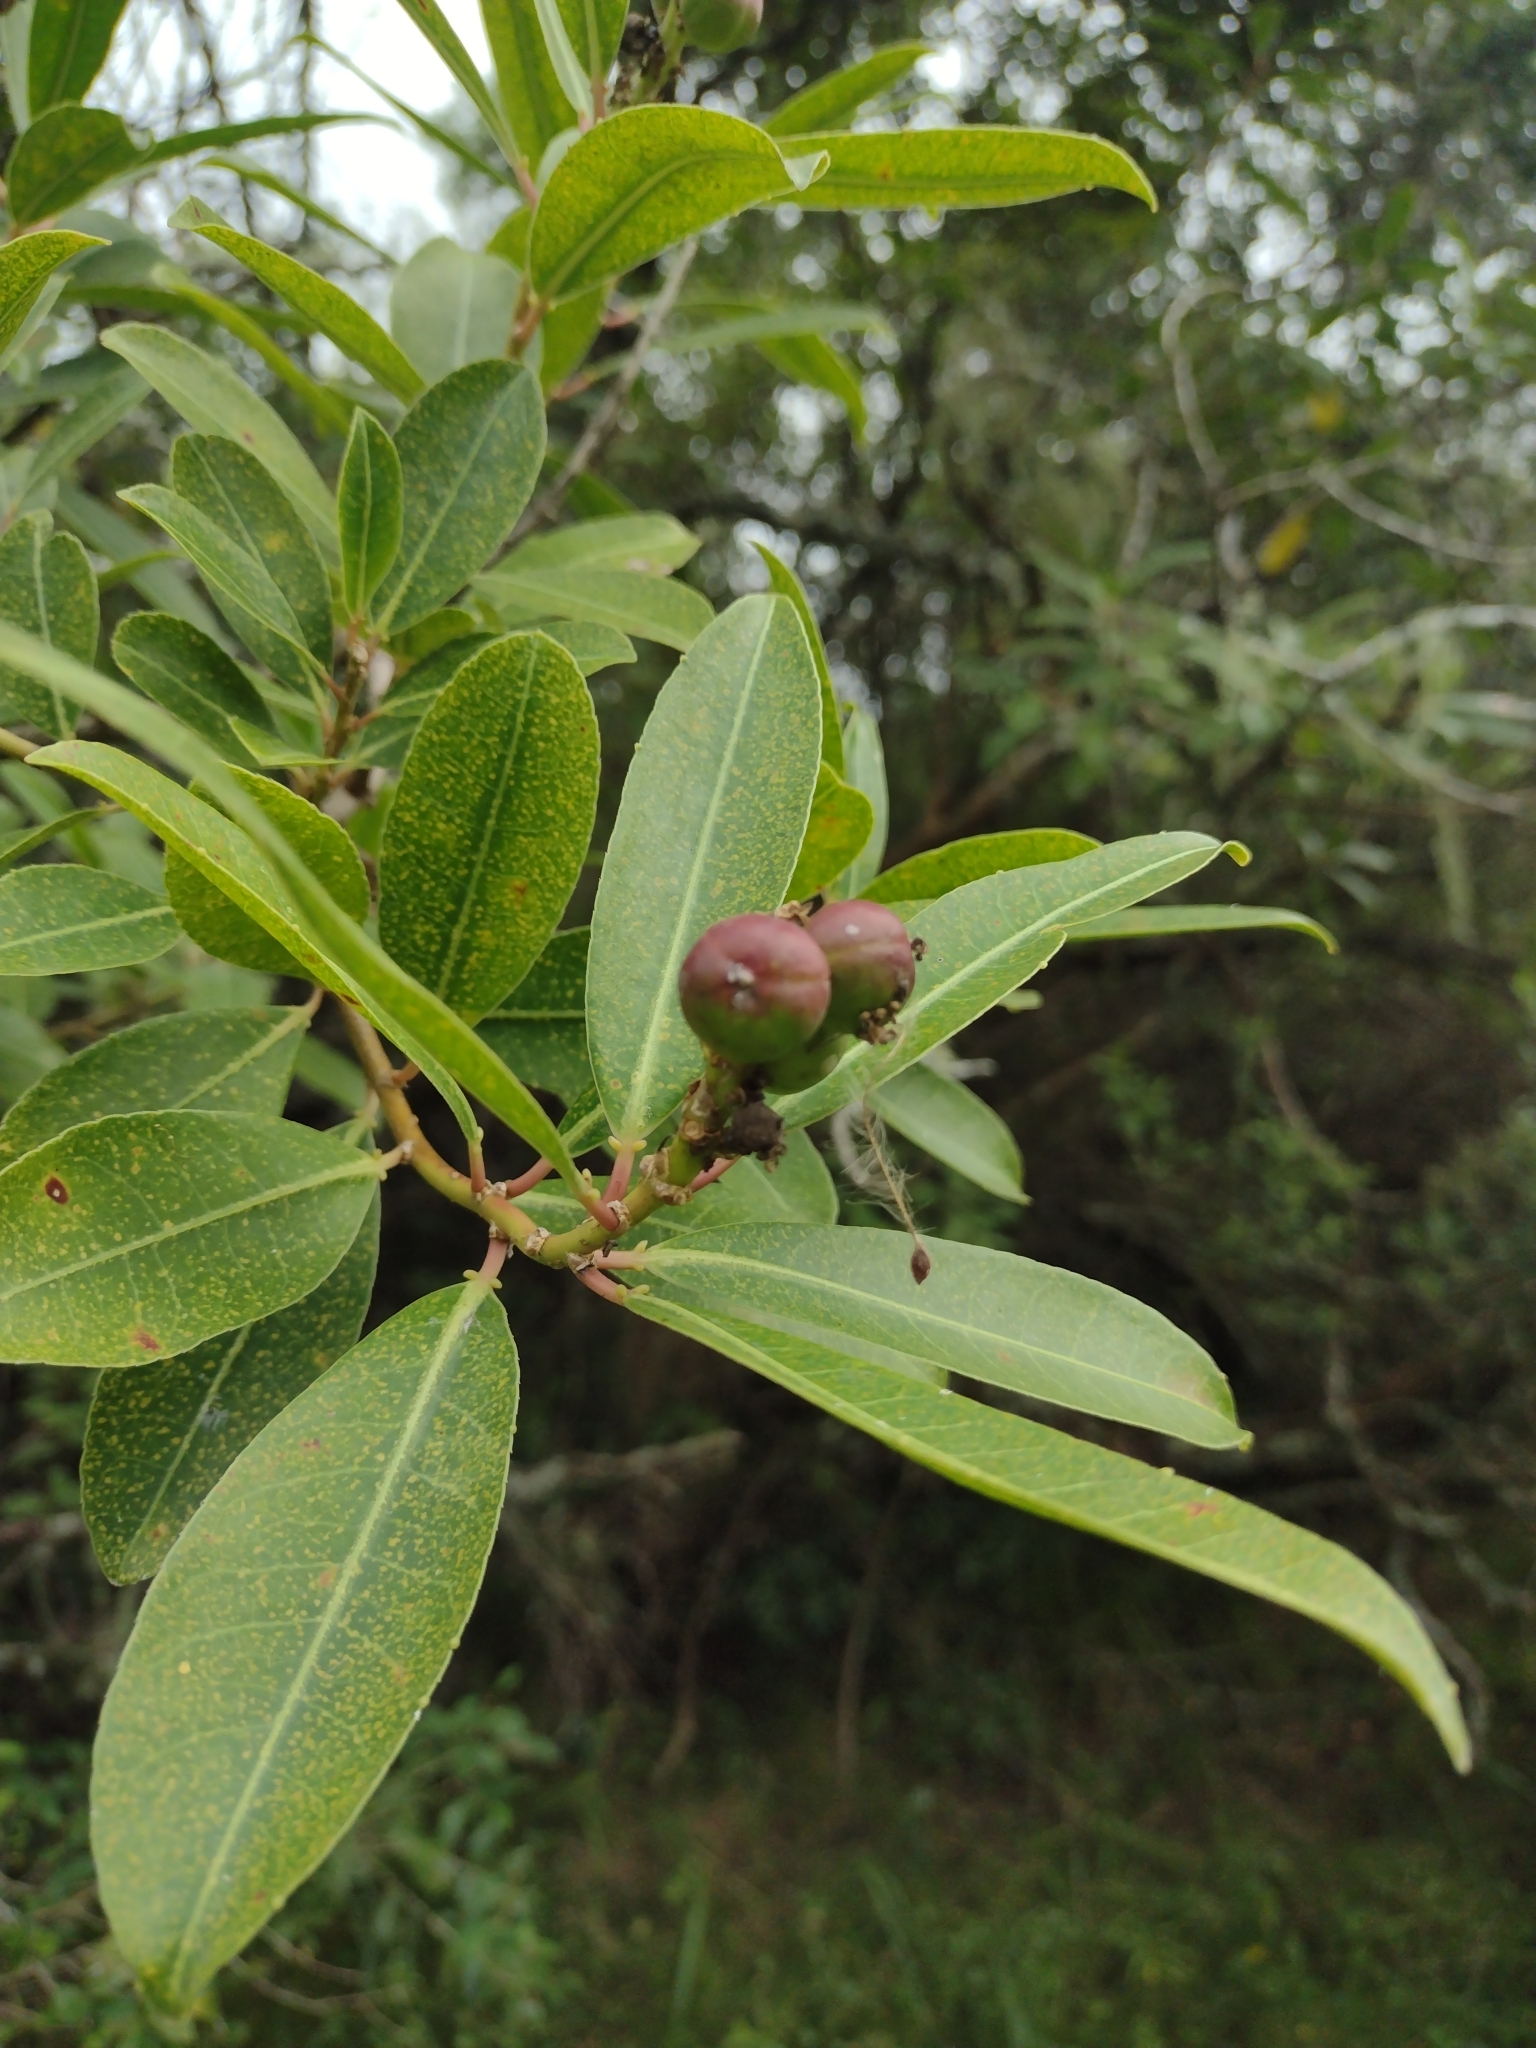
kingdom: Plantae
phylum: Tracheophyta
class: Magnoliopsida
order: Malpighiales
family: Euphorbiaceae
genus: Sapium
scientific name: Sapium glandulosum
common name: Milktree
